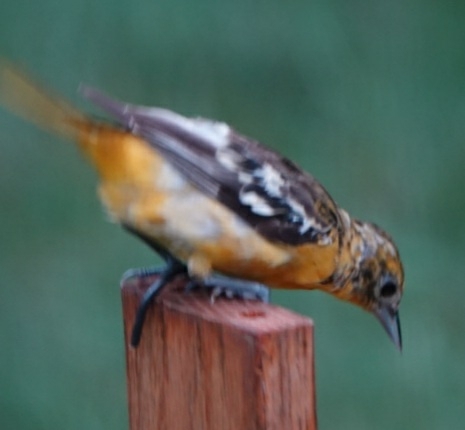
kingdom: Animalia
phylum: Chordata
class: Aves
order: Passeriformes
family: Icteridae
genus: Icterus
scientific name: Icterus galbula
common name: Baltimore oriole
